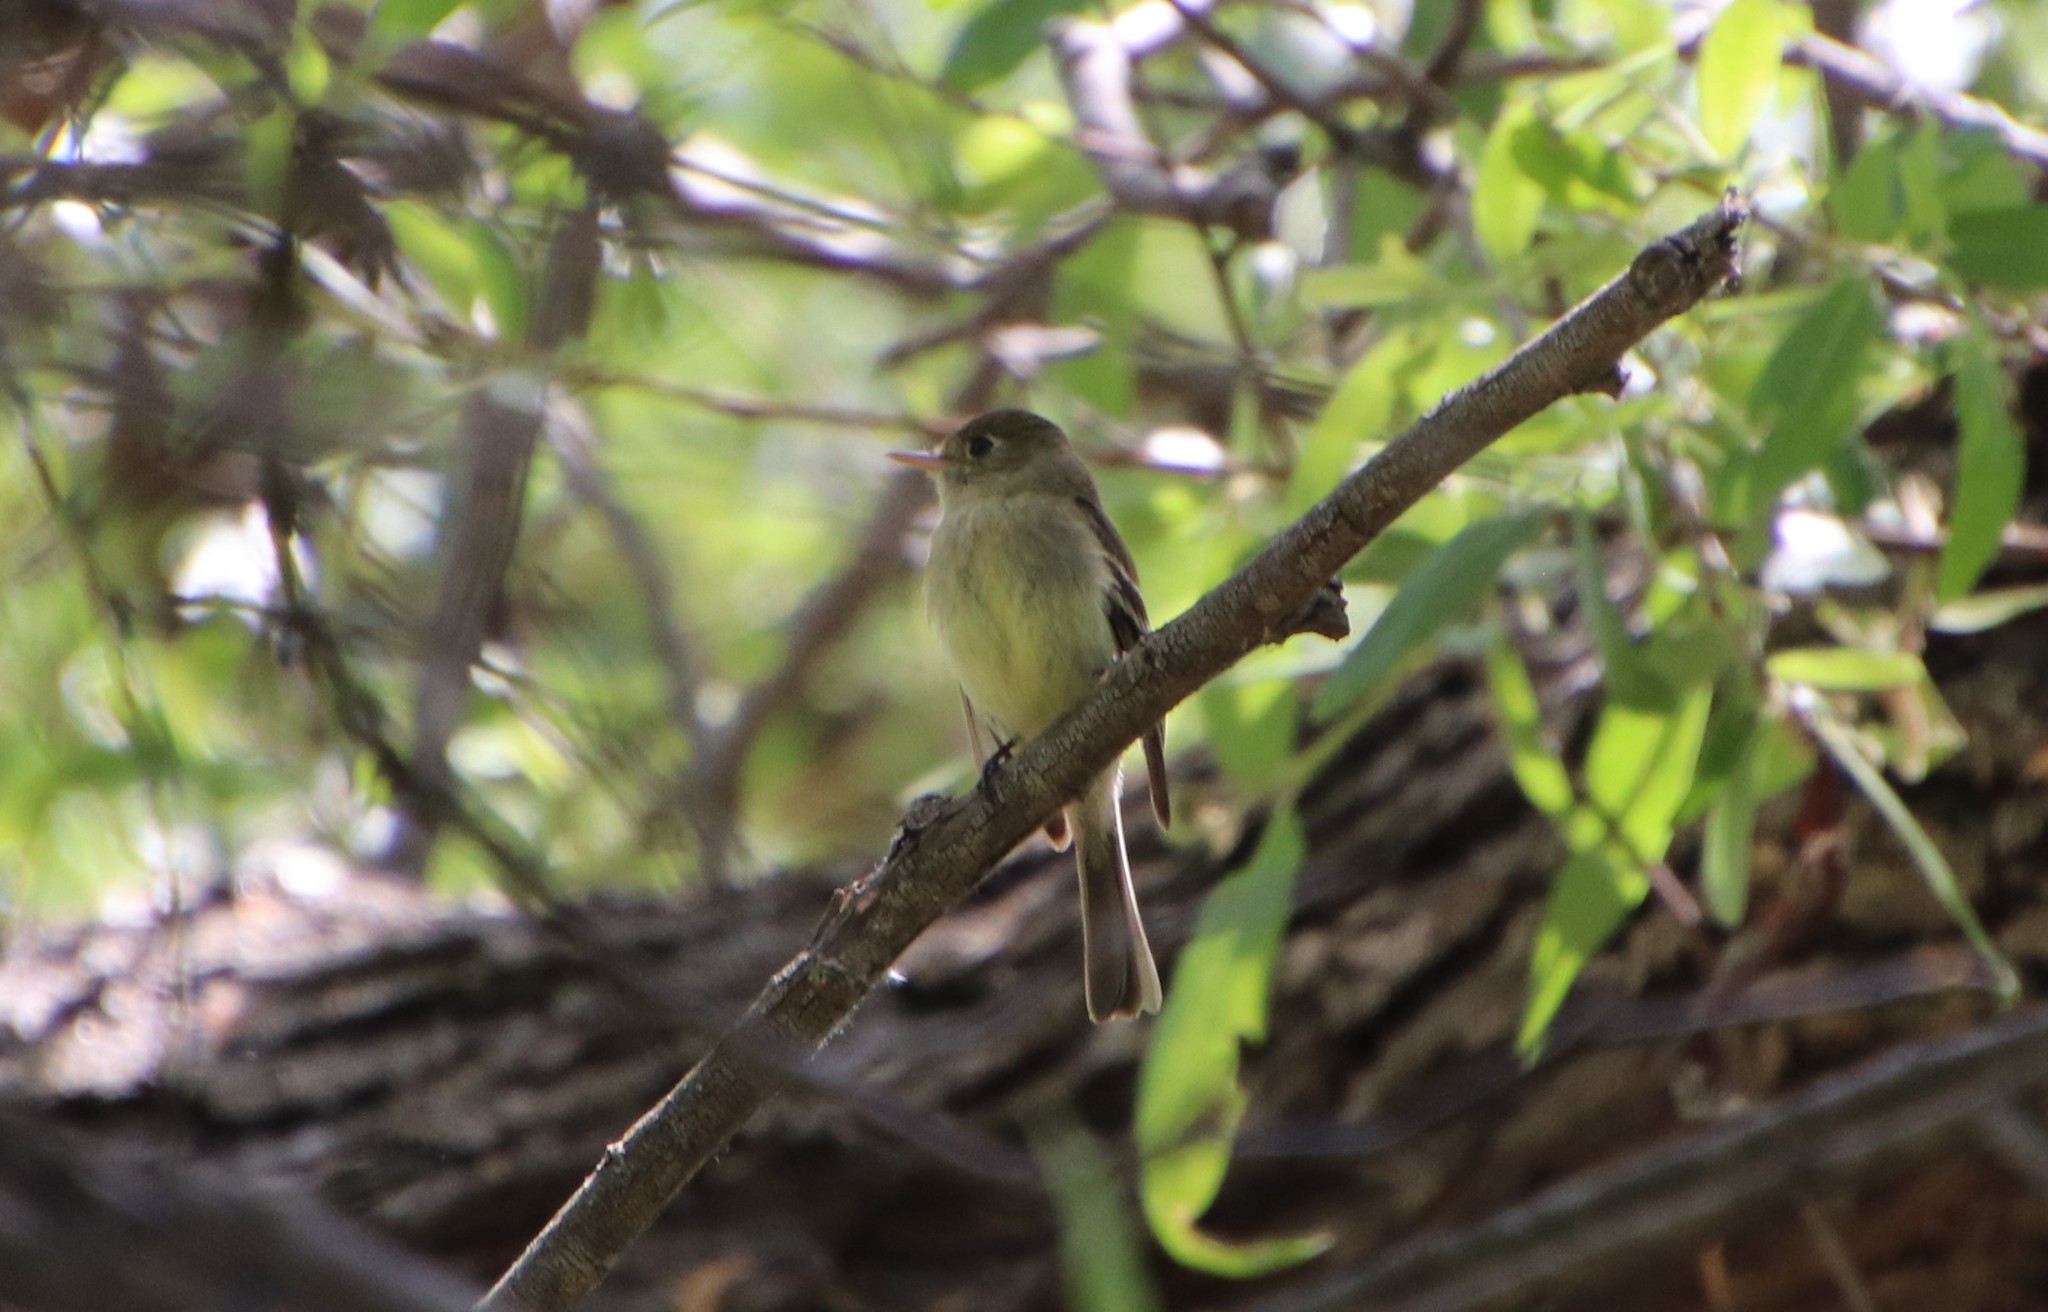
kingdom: Animalia
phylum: Chordata
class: Aves
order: Passeriformes
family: Tyrannidae
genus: Empidonax
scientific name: Empidonax difficilis
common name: Pacific-slope flycatcher
